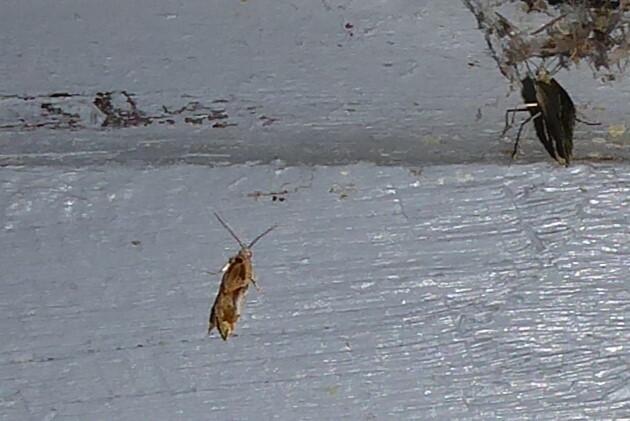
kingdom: Animalia
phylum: Arthropoda
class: Insecta
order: Lepidoptera
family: Tortricidae
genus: Pyrgotis
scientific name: Pyrgotis plagiatana
